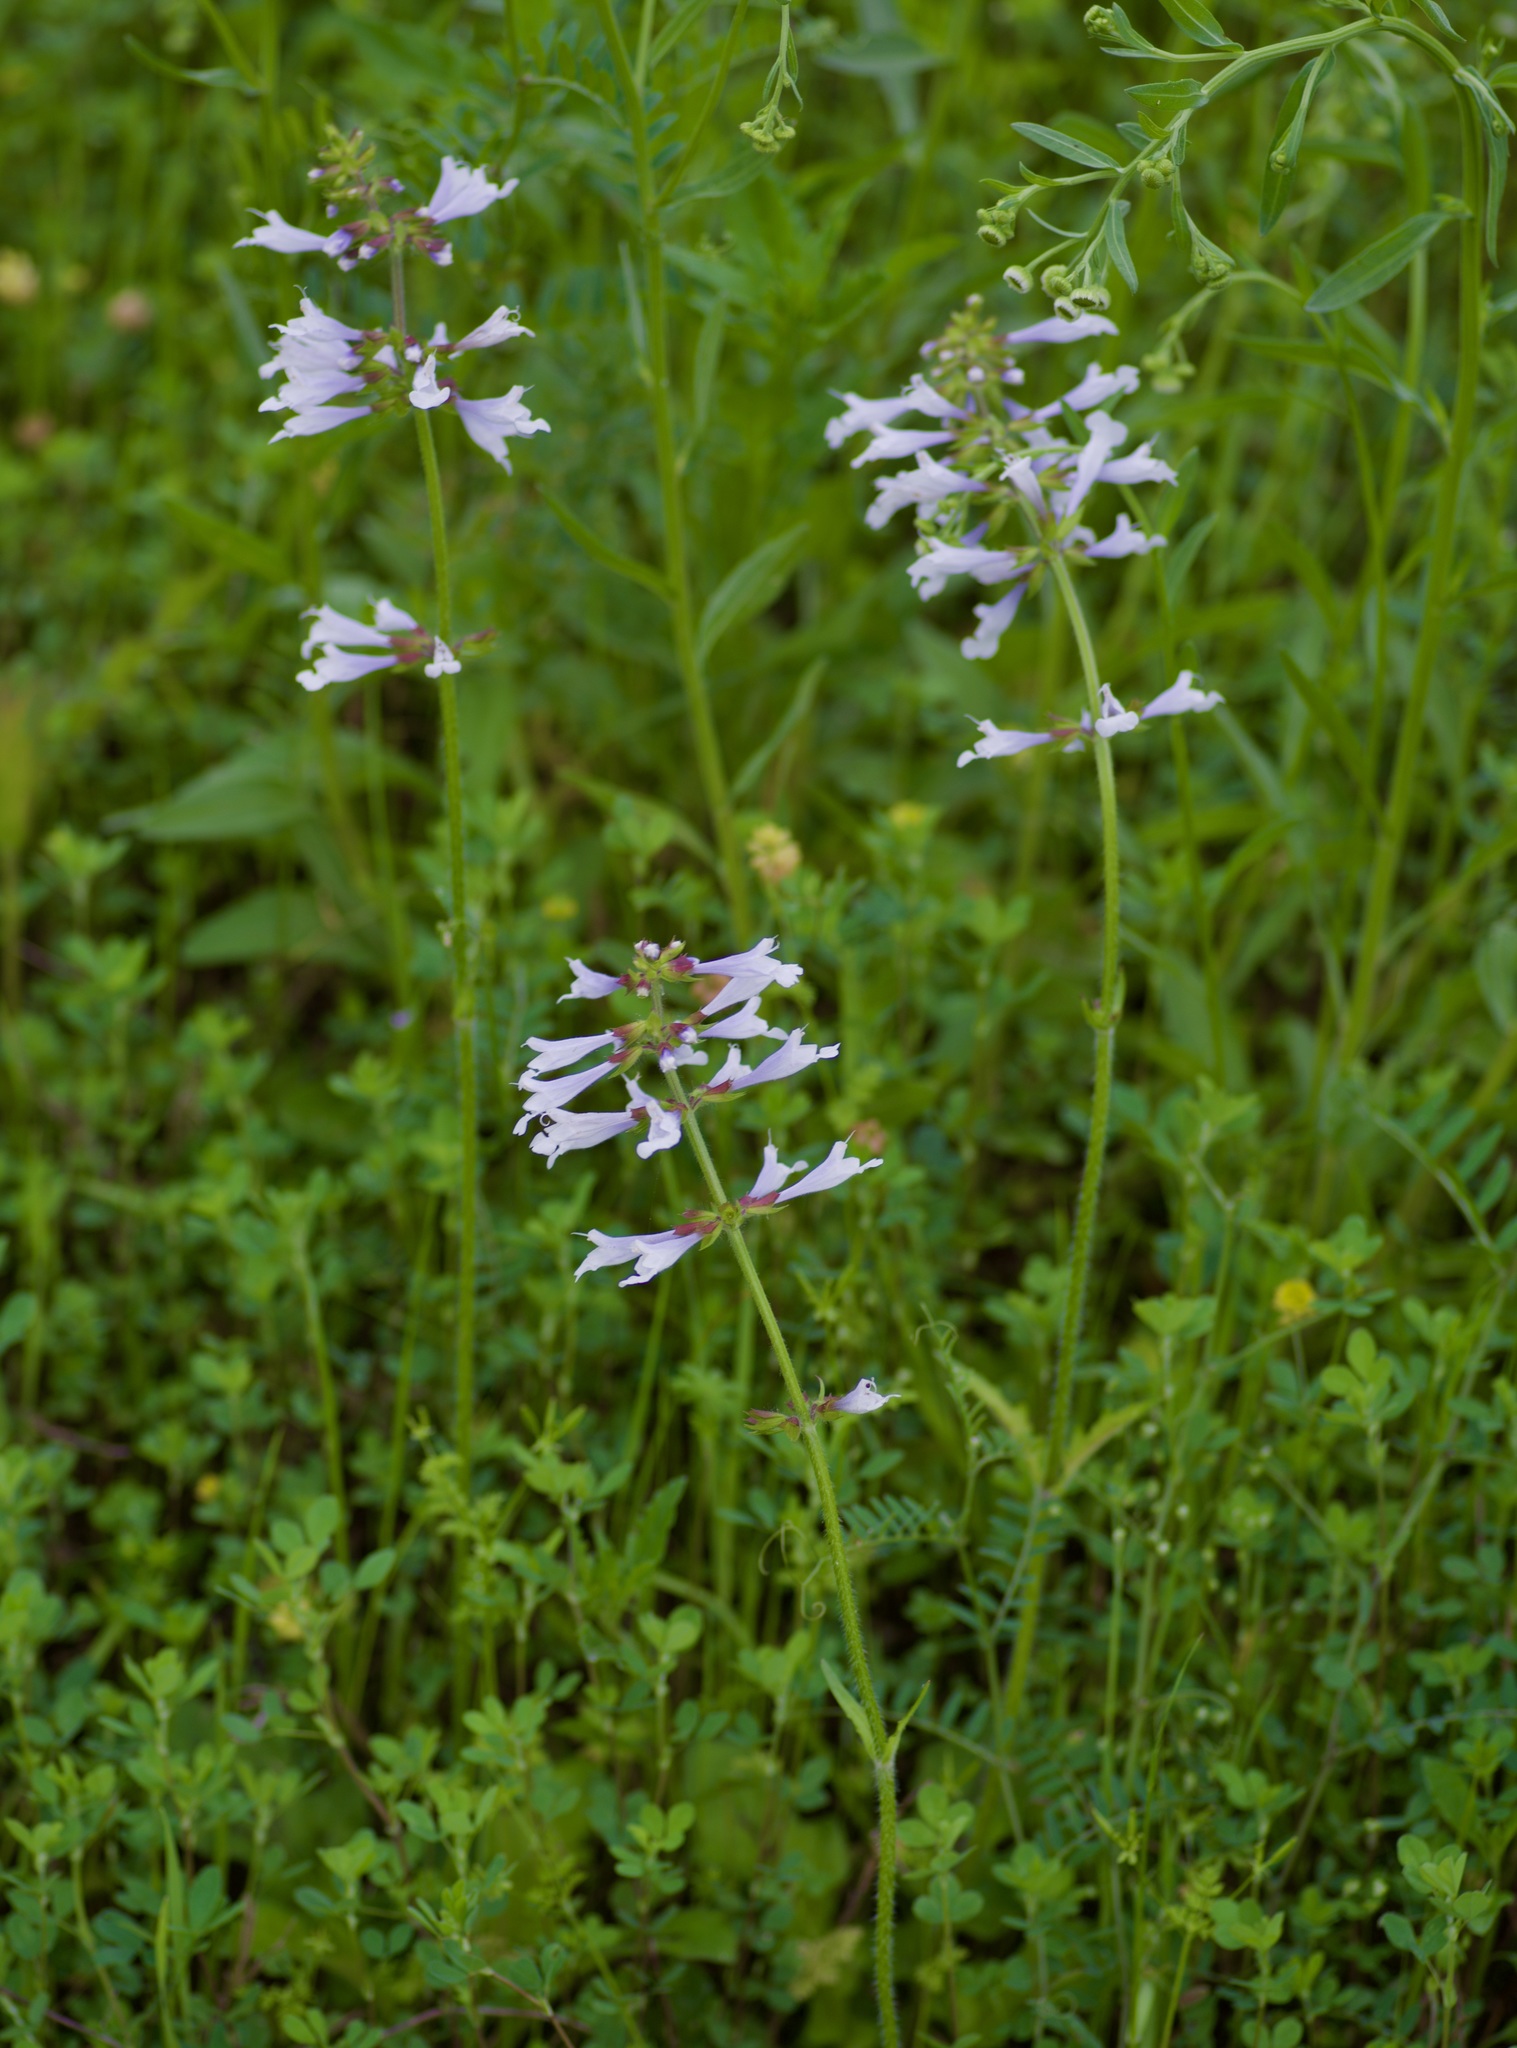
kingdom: Plantae
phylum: Tracheophyta
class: Magnoliopsida
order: Lamiales
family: Lamiaceae
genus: Salvia
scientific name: Salvia lyrata
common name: Cancerweed
